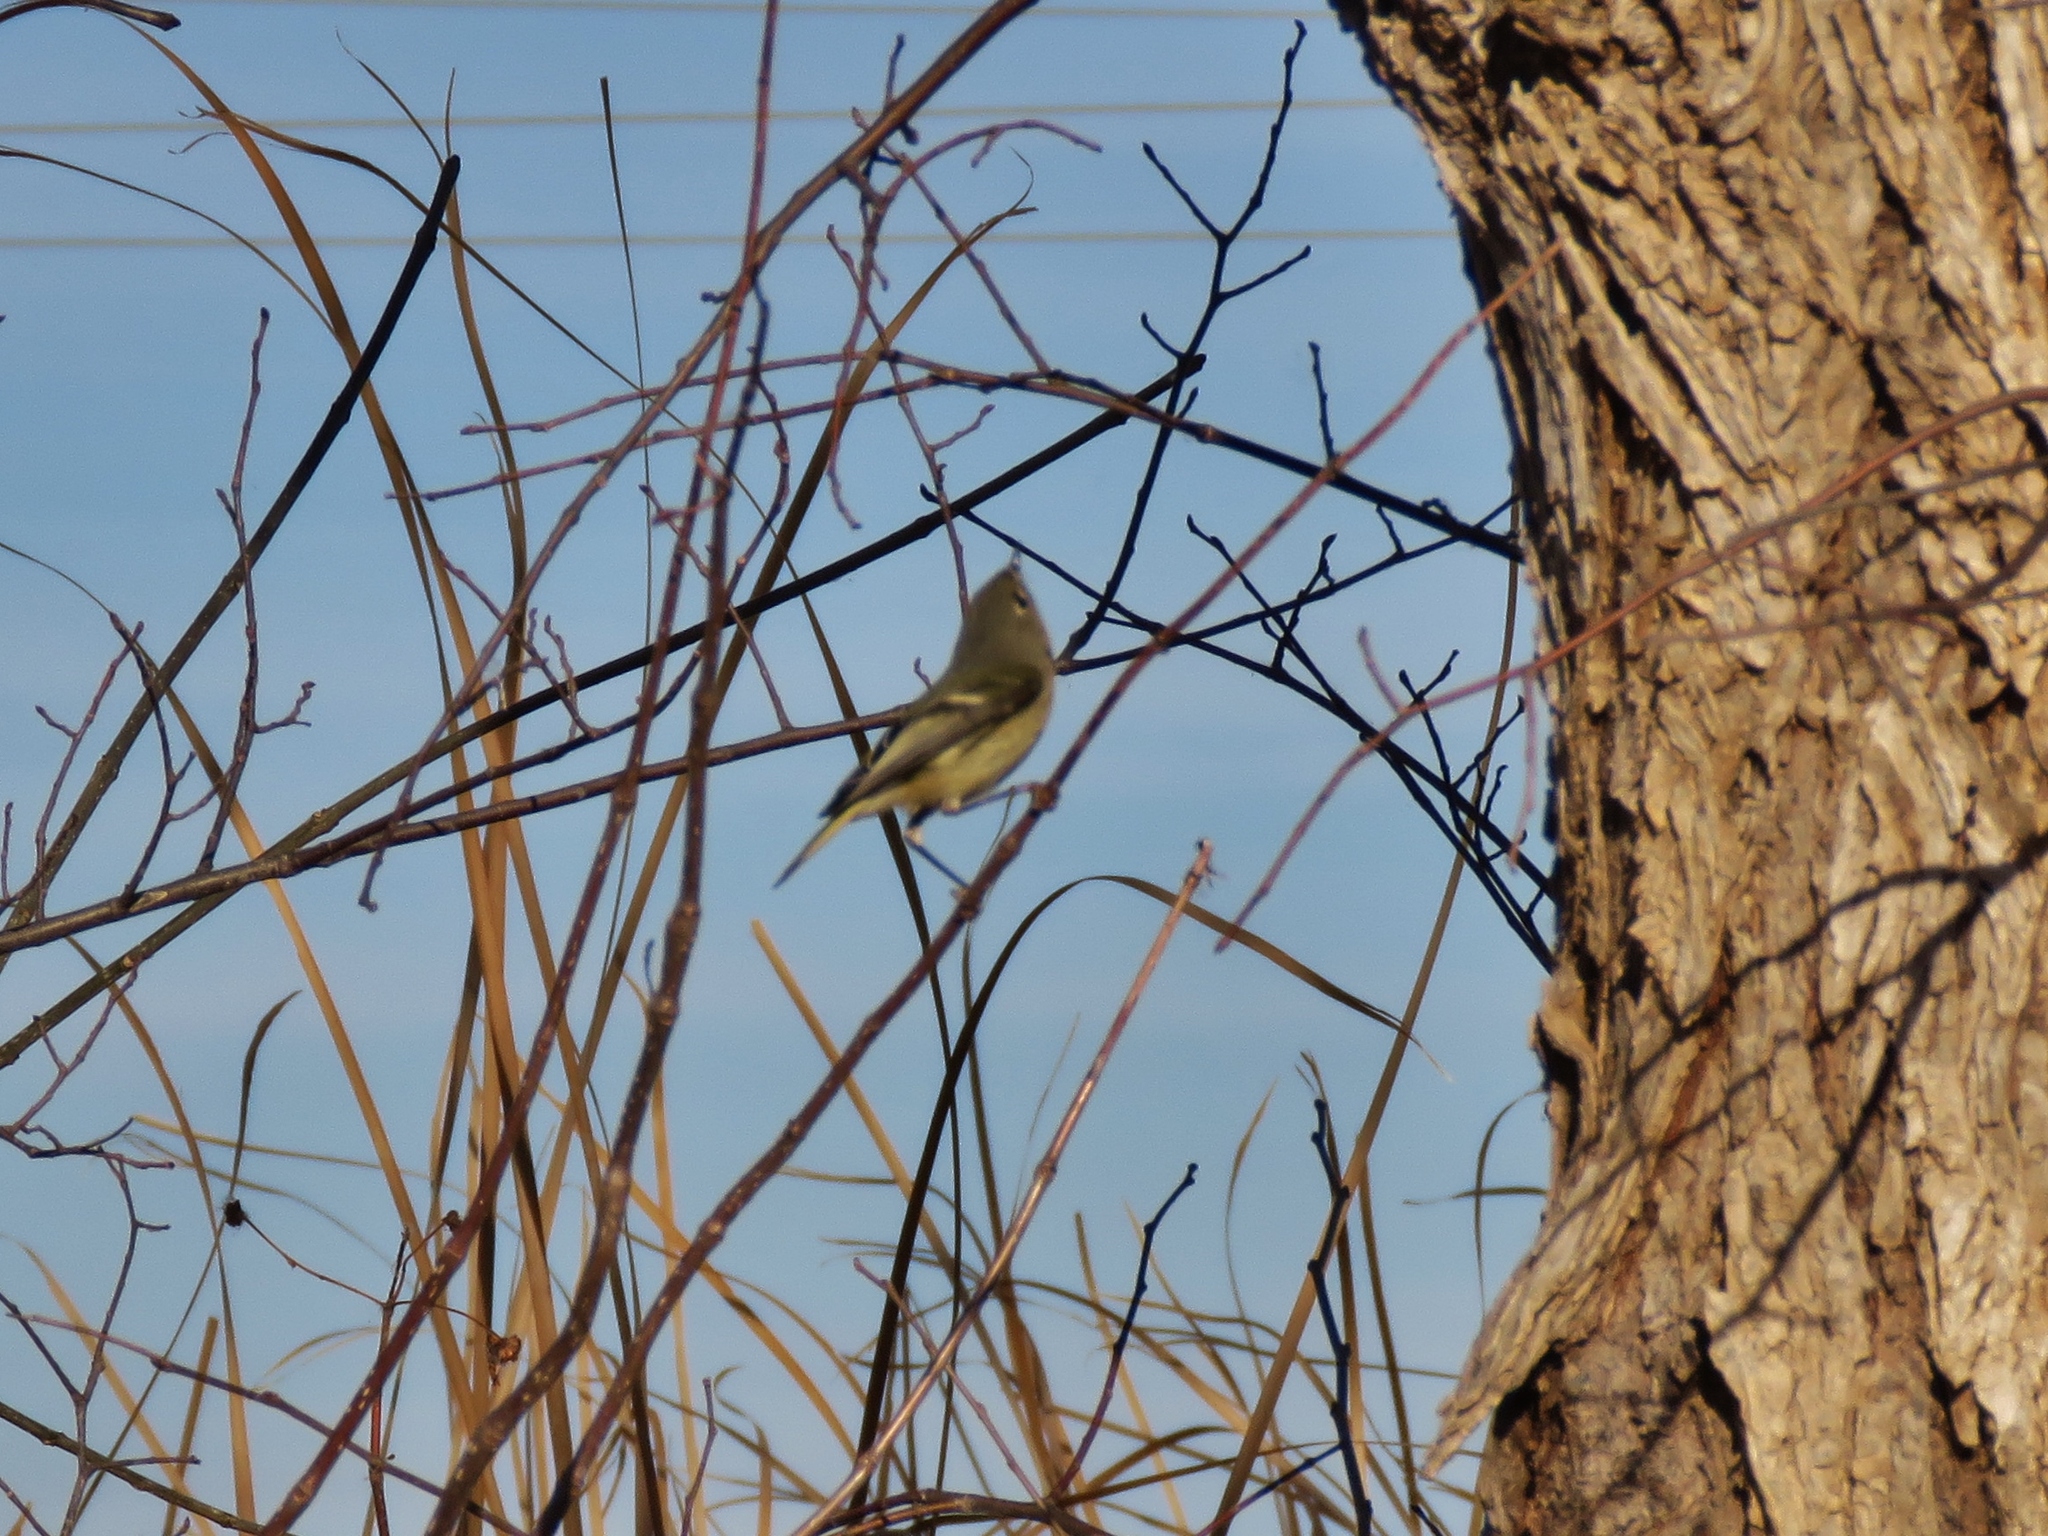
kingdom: Animalia
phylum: Chordata
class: Aves
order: Passeriformes
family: Regulidae
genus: Regulus
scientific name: Regulus calendula
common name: Ruby-crowned kinglet
